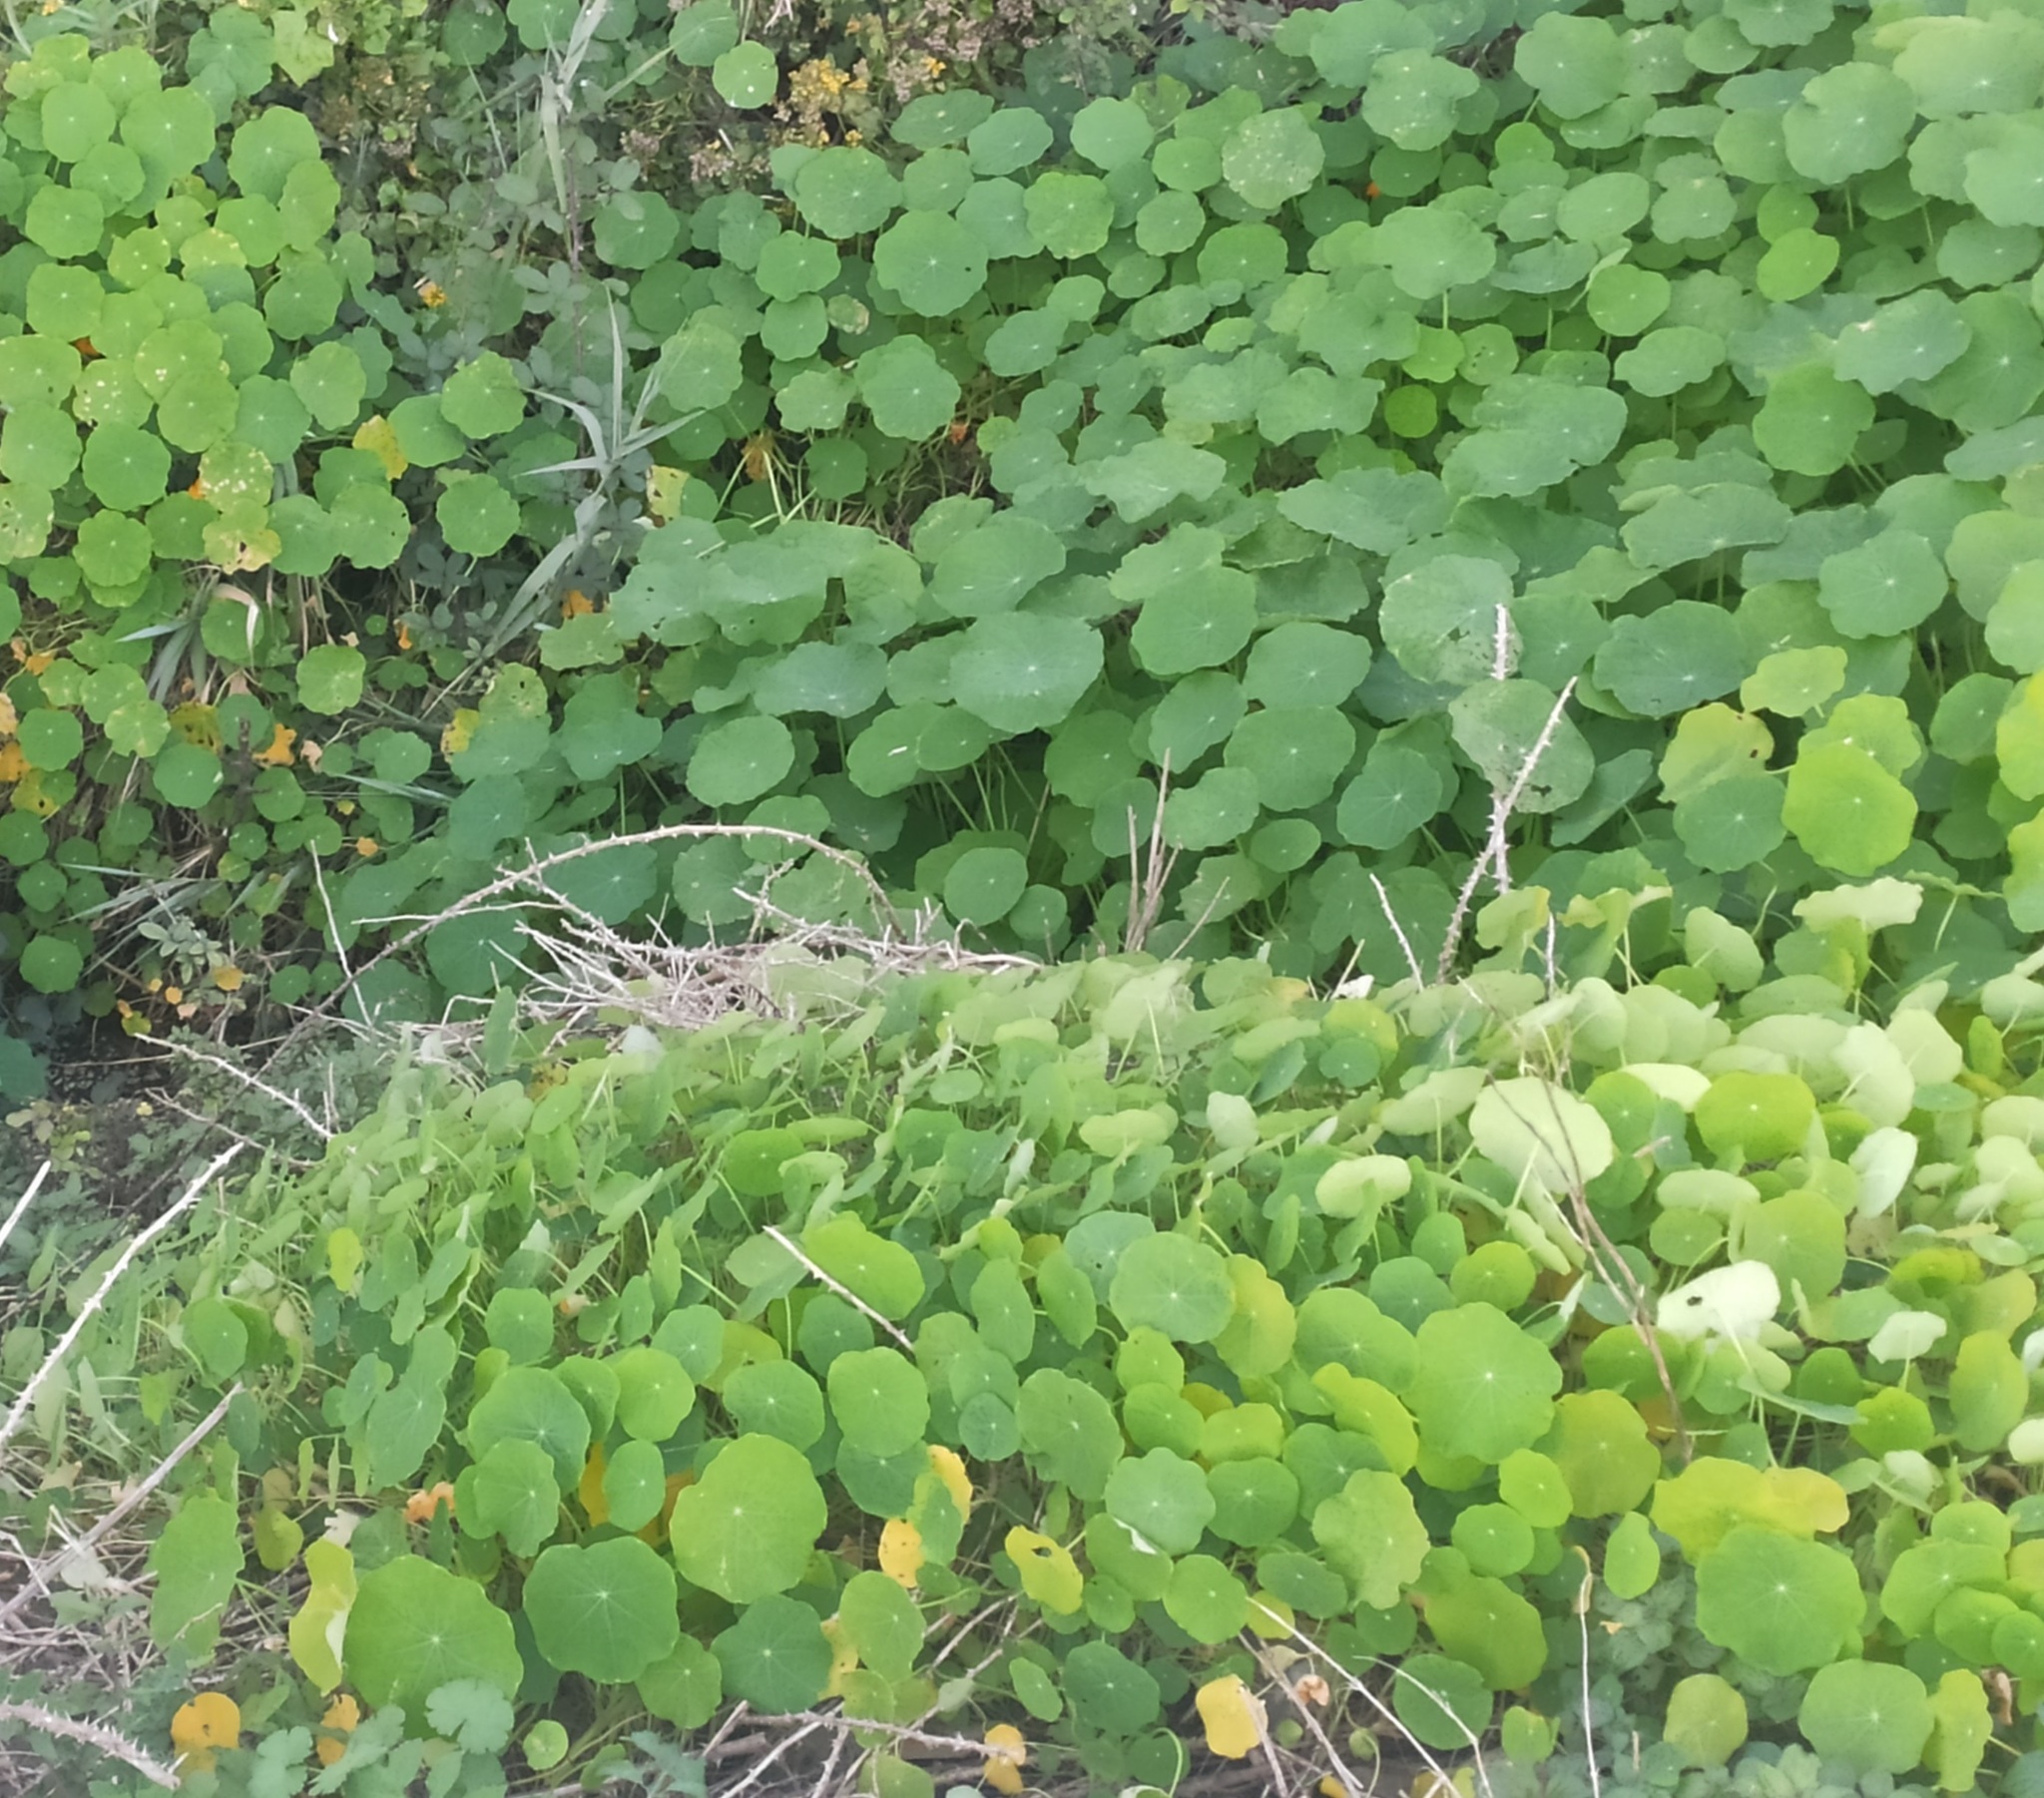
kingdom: Plantae
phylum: Tracheophyta
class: Magnoliopsida
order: Brassicales
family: Tropaeolaceae
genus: Tropaeolum
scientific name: Tropaeolum majus
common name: Nasturtium
